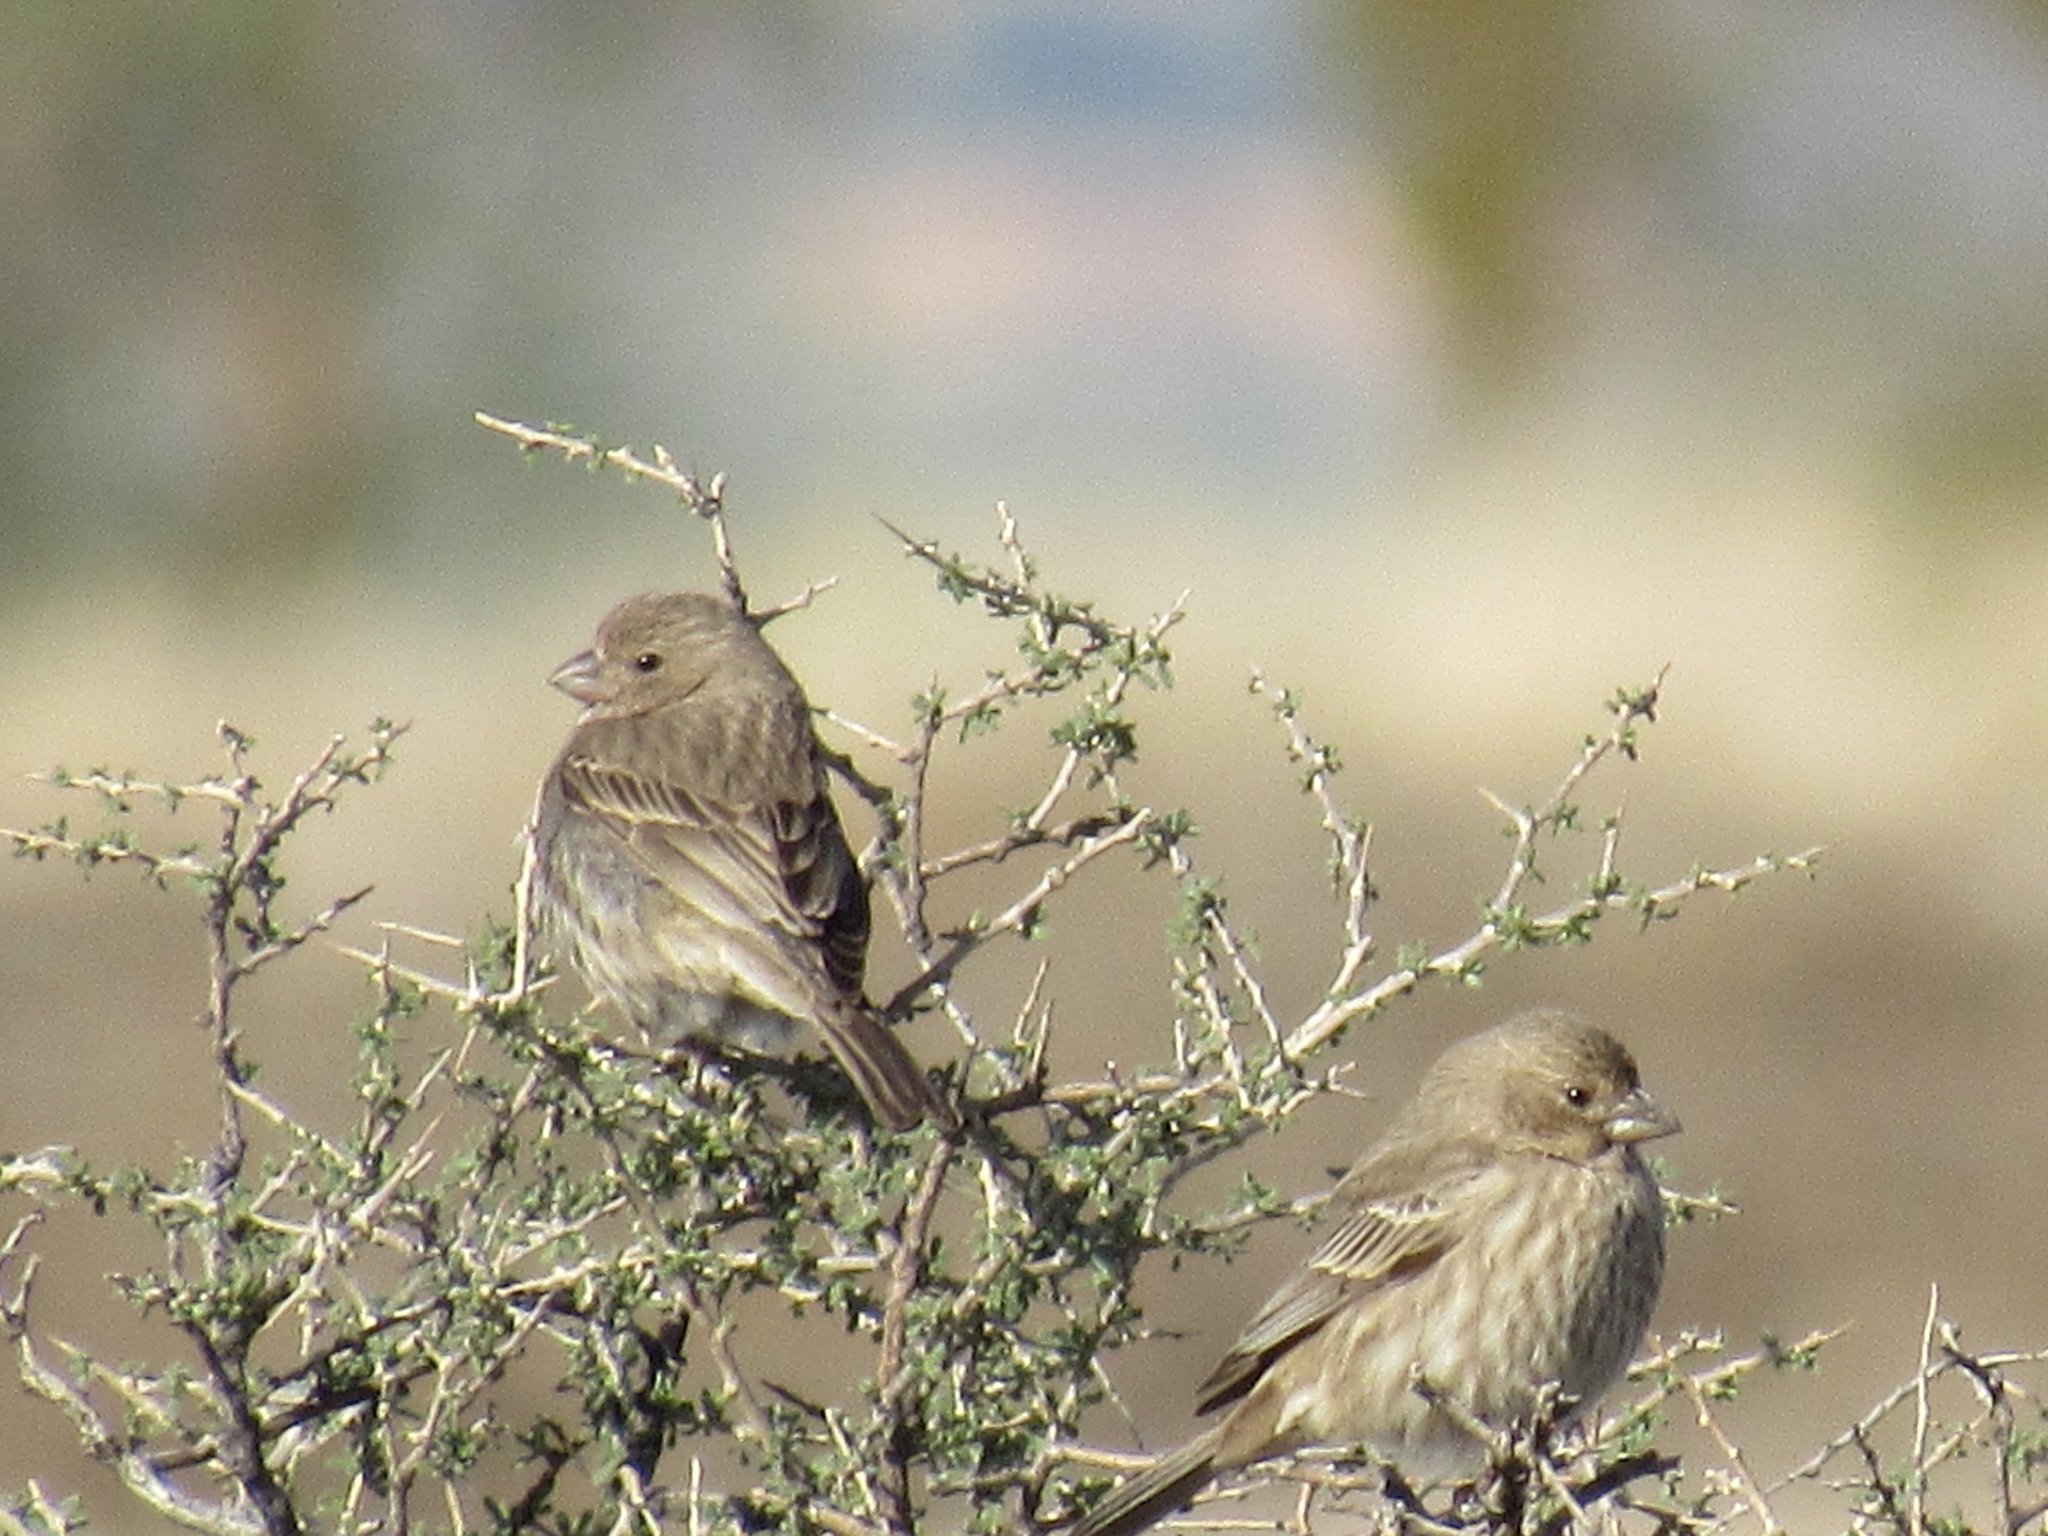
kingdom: Animalia
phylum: Chordata
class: Aves
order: Passeriformes
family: Fringillidae
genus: Haemorhous
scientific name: Haemorhous mexicanus
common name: House finch
